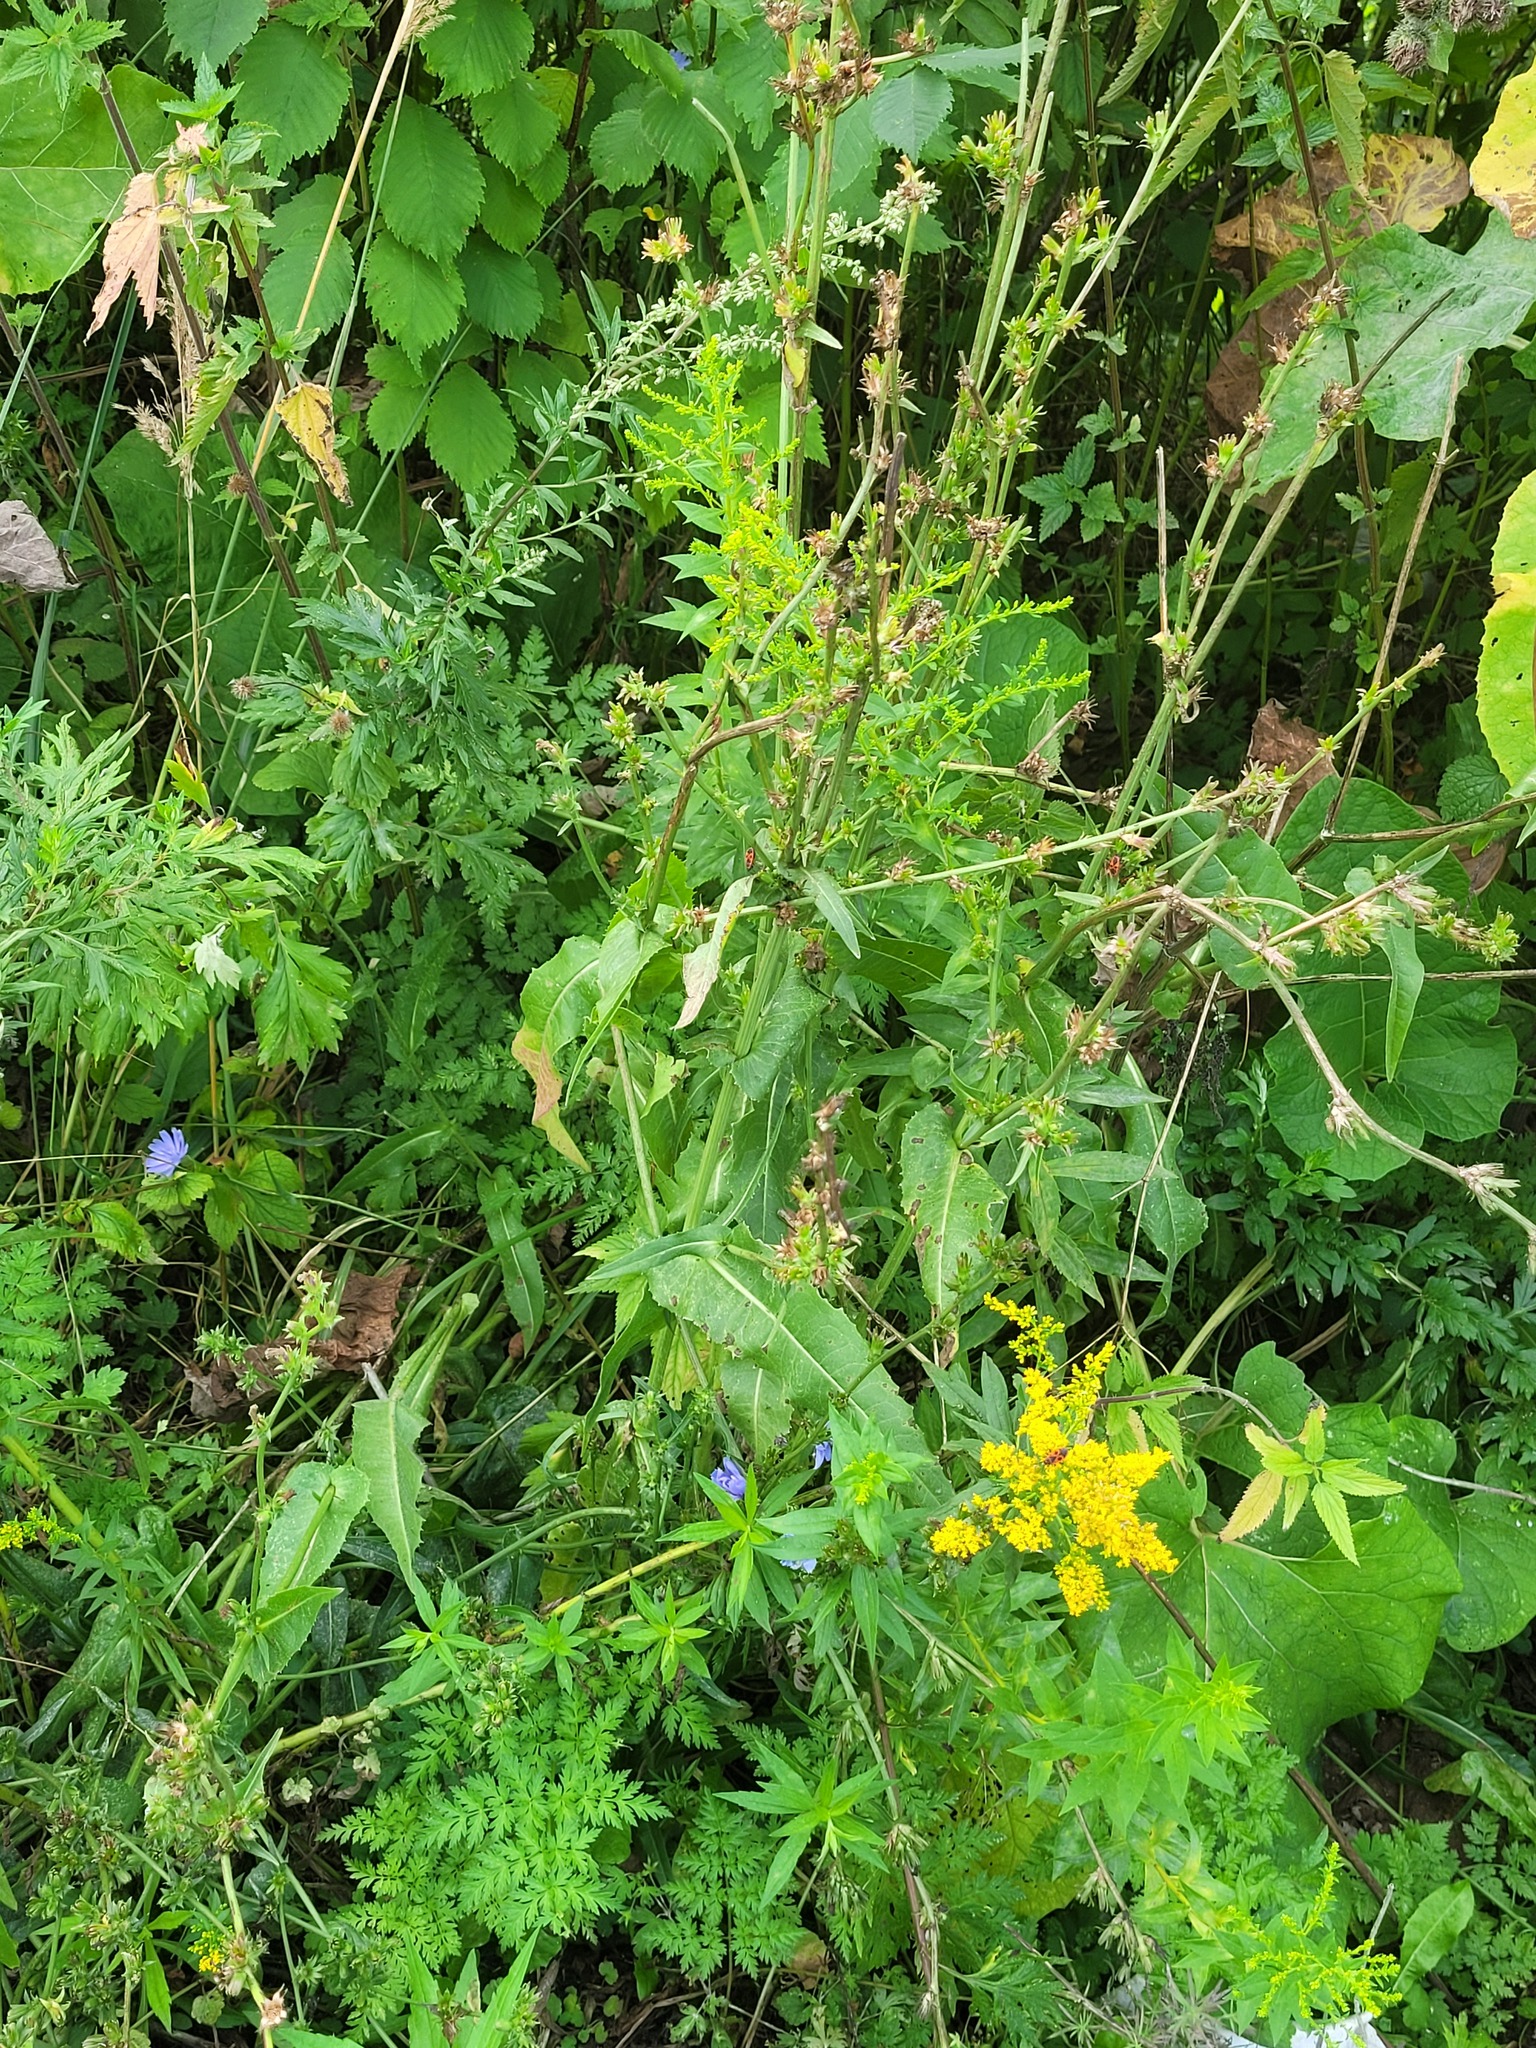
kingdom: Plantae
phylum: Tracheophyta
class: Magnoliopsida
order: Asterales
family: Asteraceae
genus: Cichorium
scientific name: Cichorium intybus
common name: Chicory
